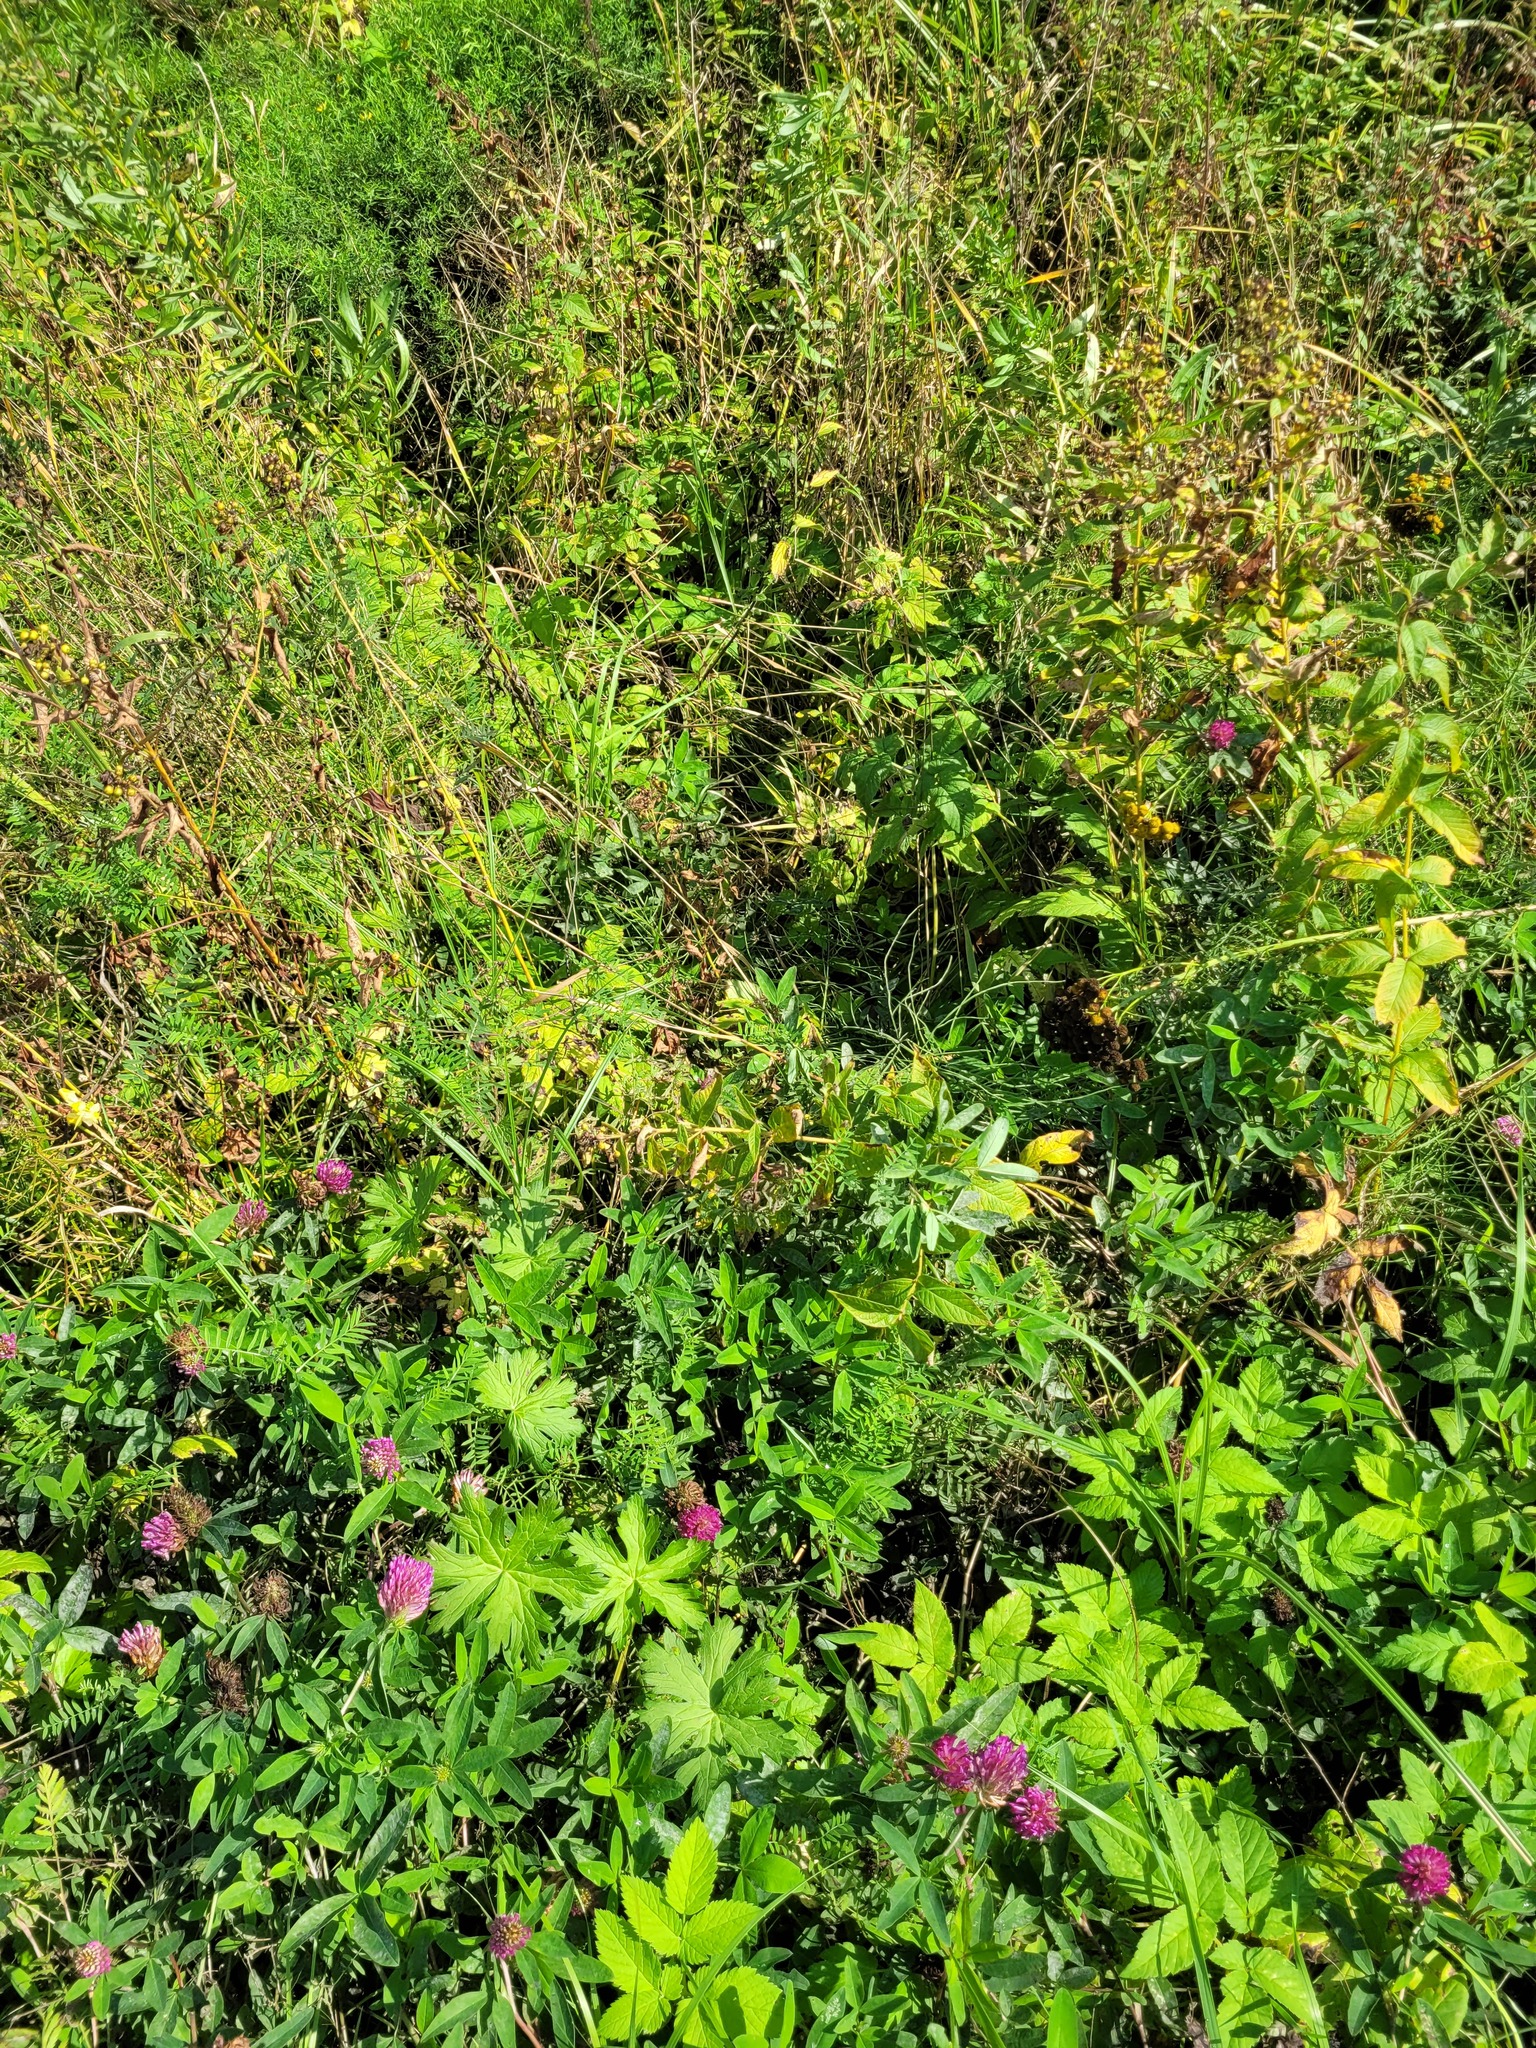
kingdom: Plantae
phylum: Tracheophyta
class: Magnoliopsida
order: Ericales
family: Primulaceae
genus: Lysimachia
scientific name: Lysimachia vulgaris
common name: Yellow loosestrife
